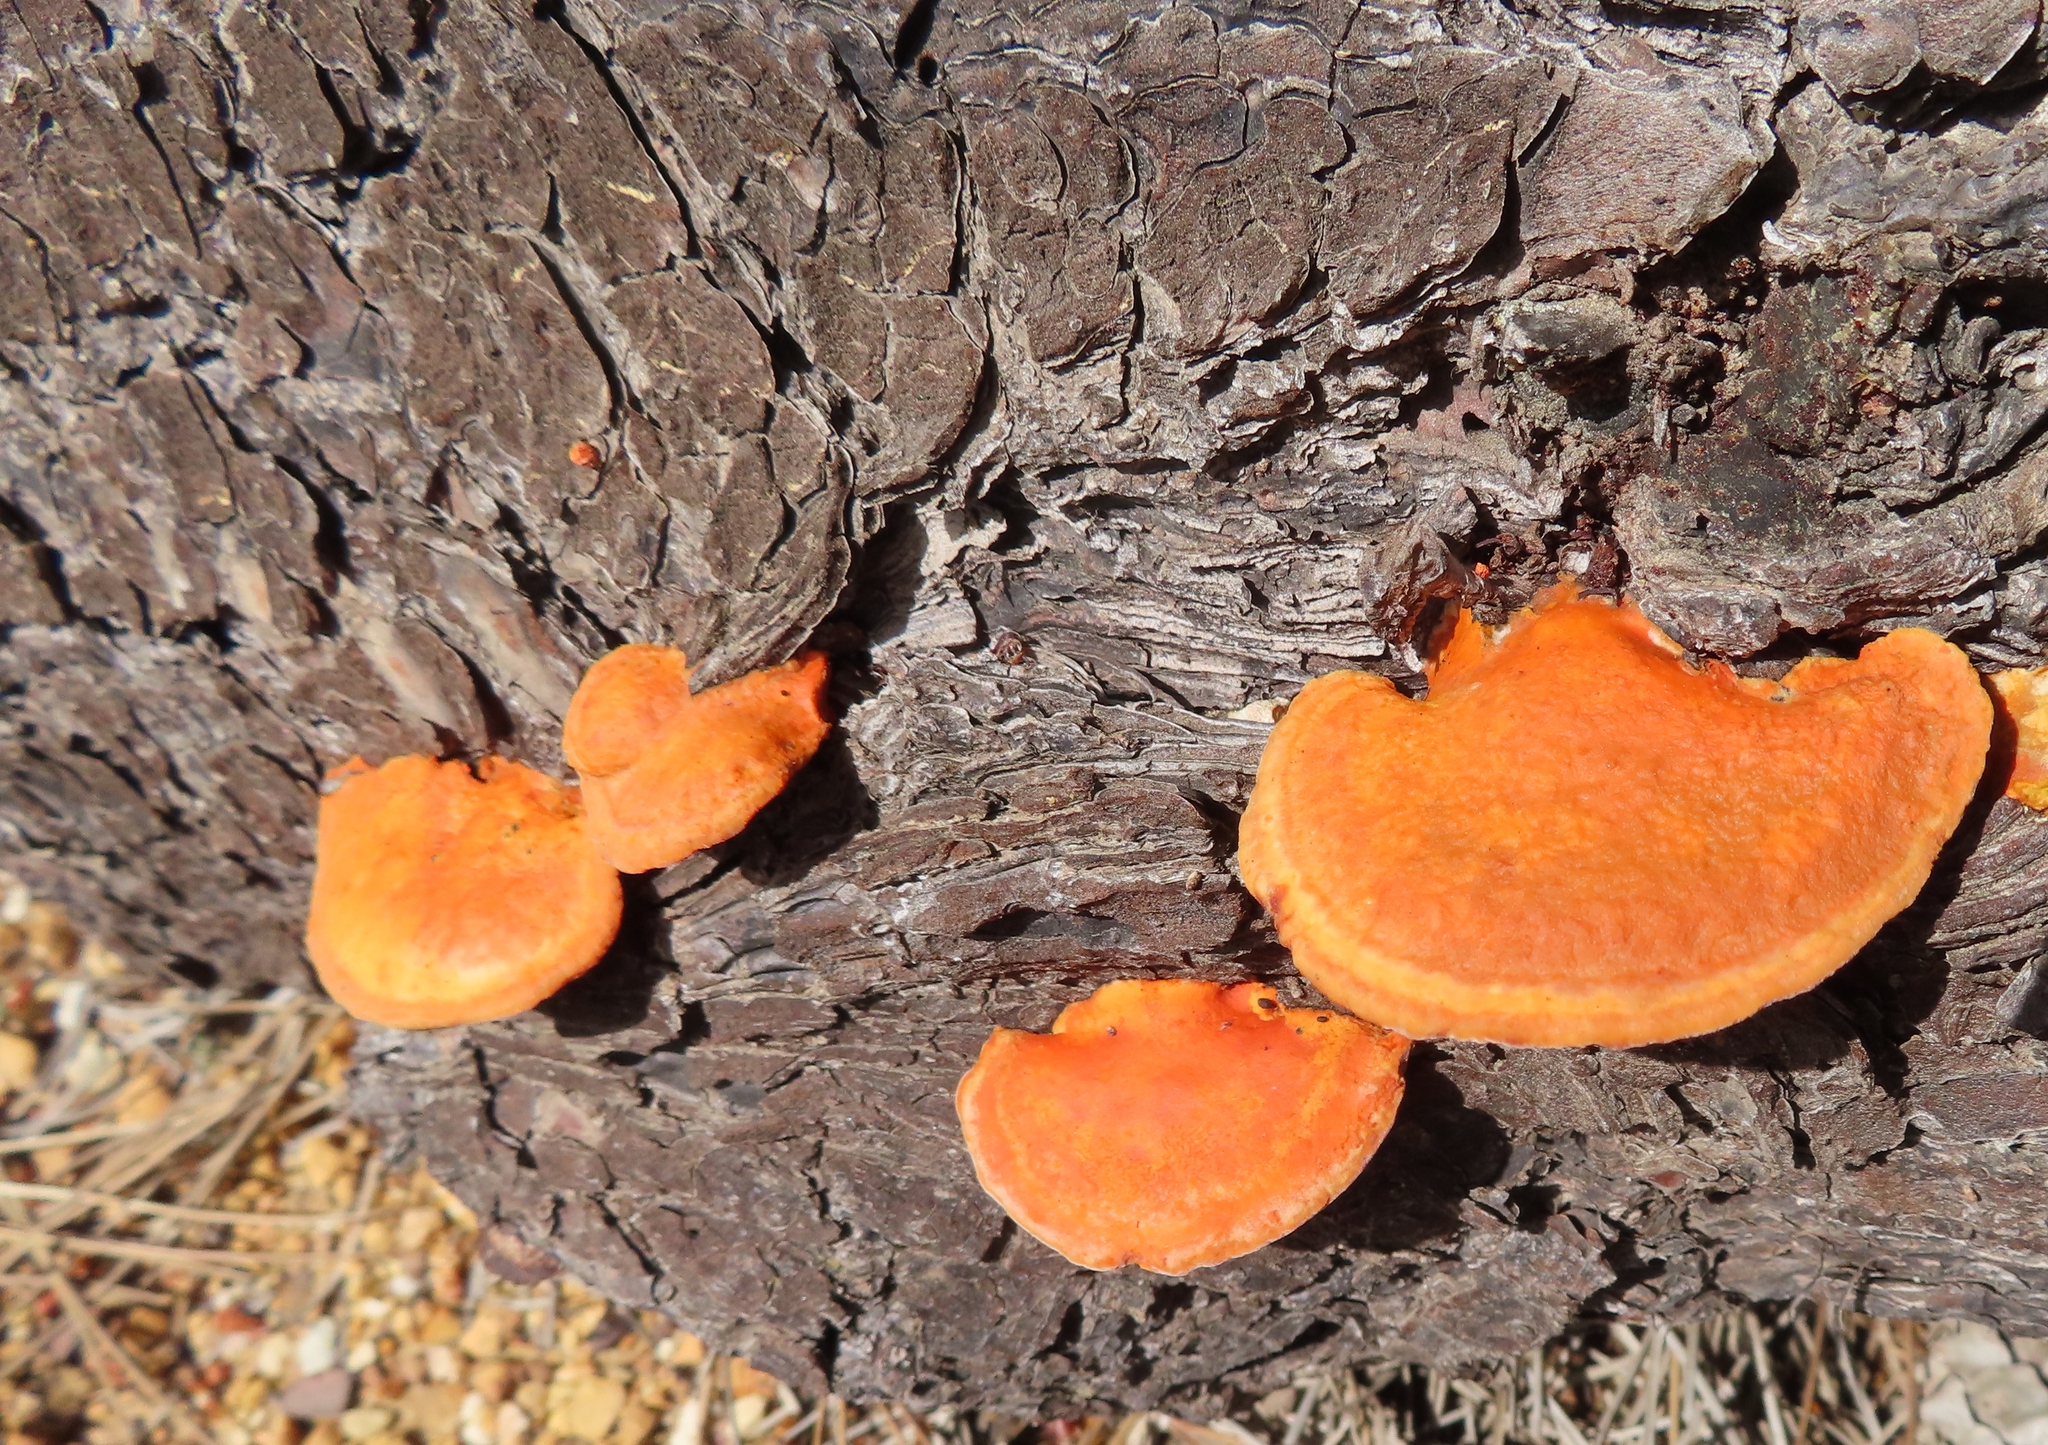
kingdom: Fungi
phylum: Basidiomycota
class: Agaricomycetes
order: Polyporales
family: Polyporaceae
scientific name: Polyporaceae
